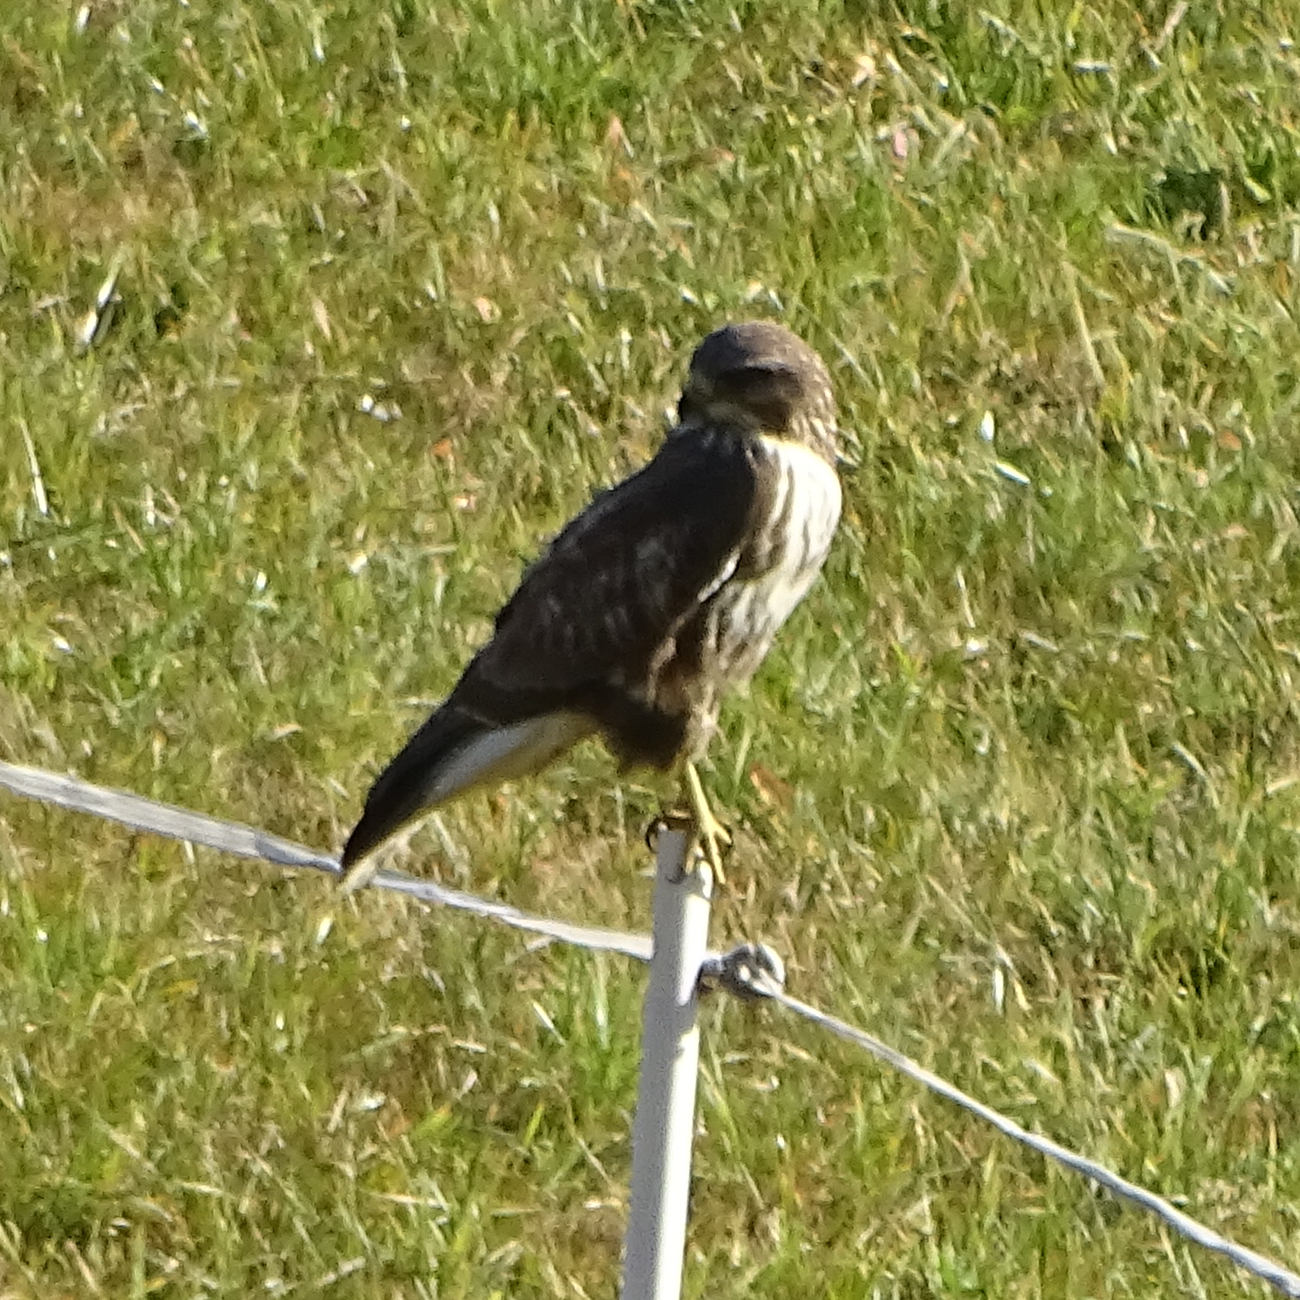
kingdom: Animalia
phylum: Chordata
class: Aves
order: Accipitriformes
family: Accipitridae
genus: Buteo
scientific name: Buteo buteo
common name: Common buzzard
